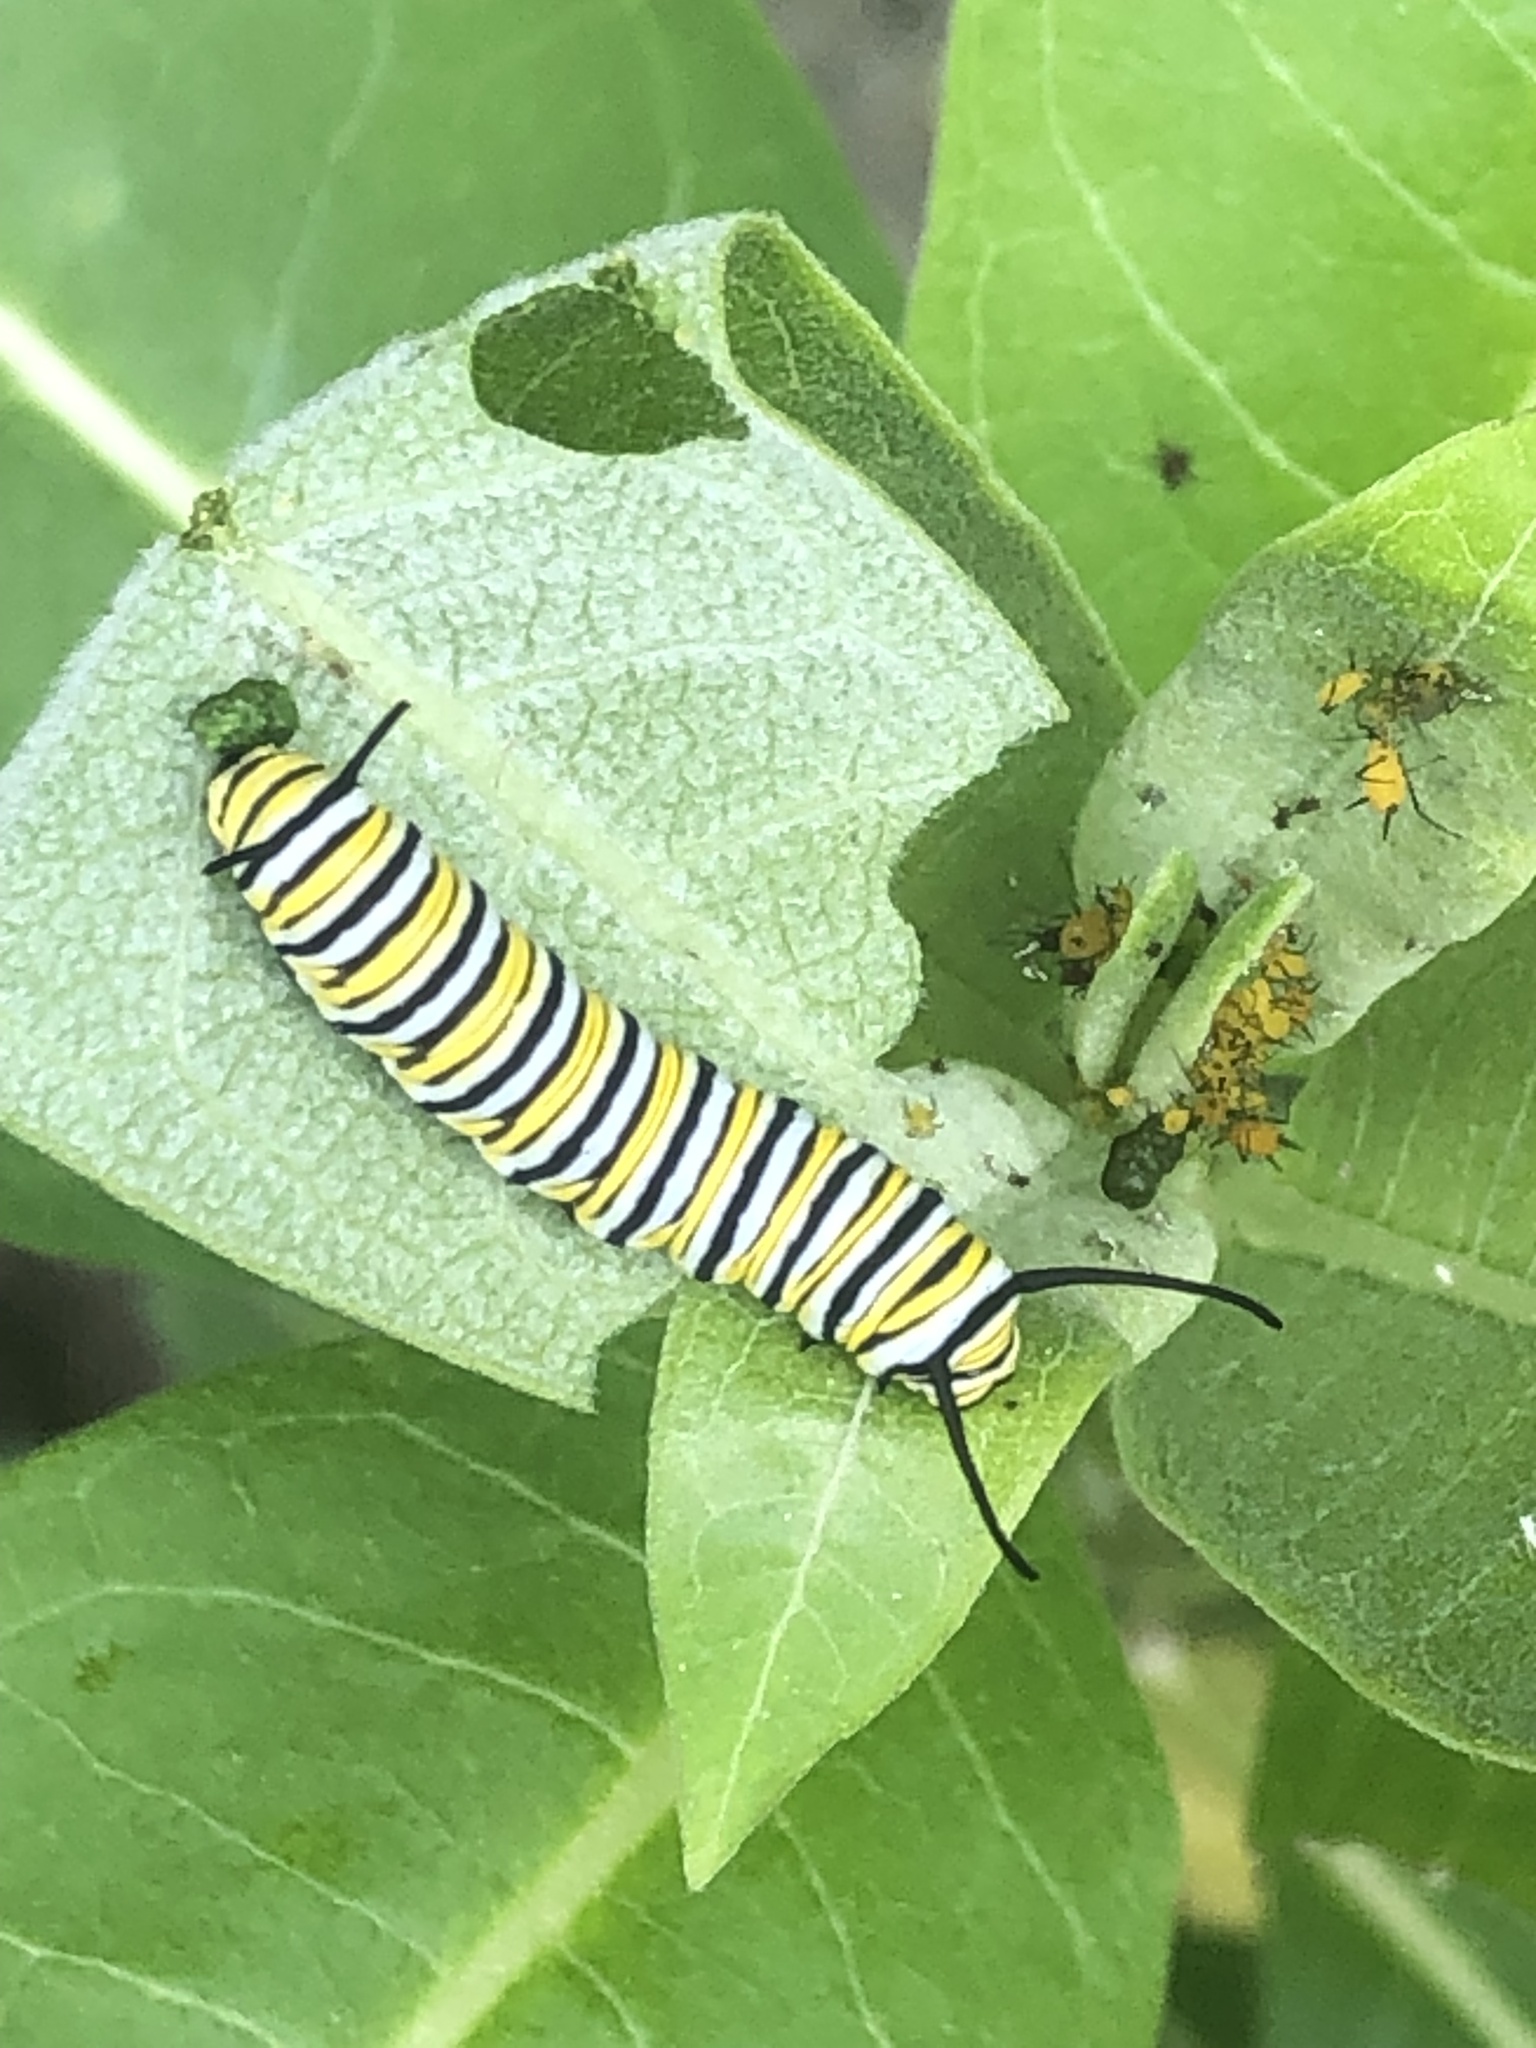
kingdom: Animalia
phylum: Arthropoda
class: Insecta
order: Lepidoptera
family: Nymphalidae
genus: Danaus
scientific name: Danaus plexippus
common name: Monarch
